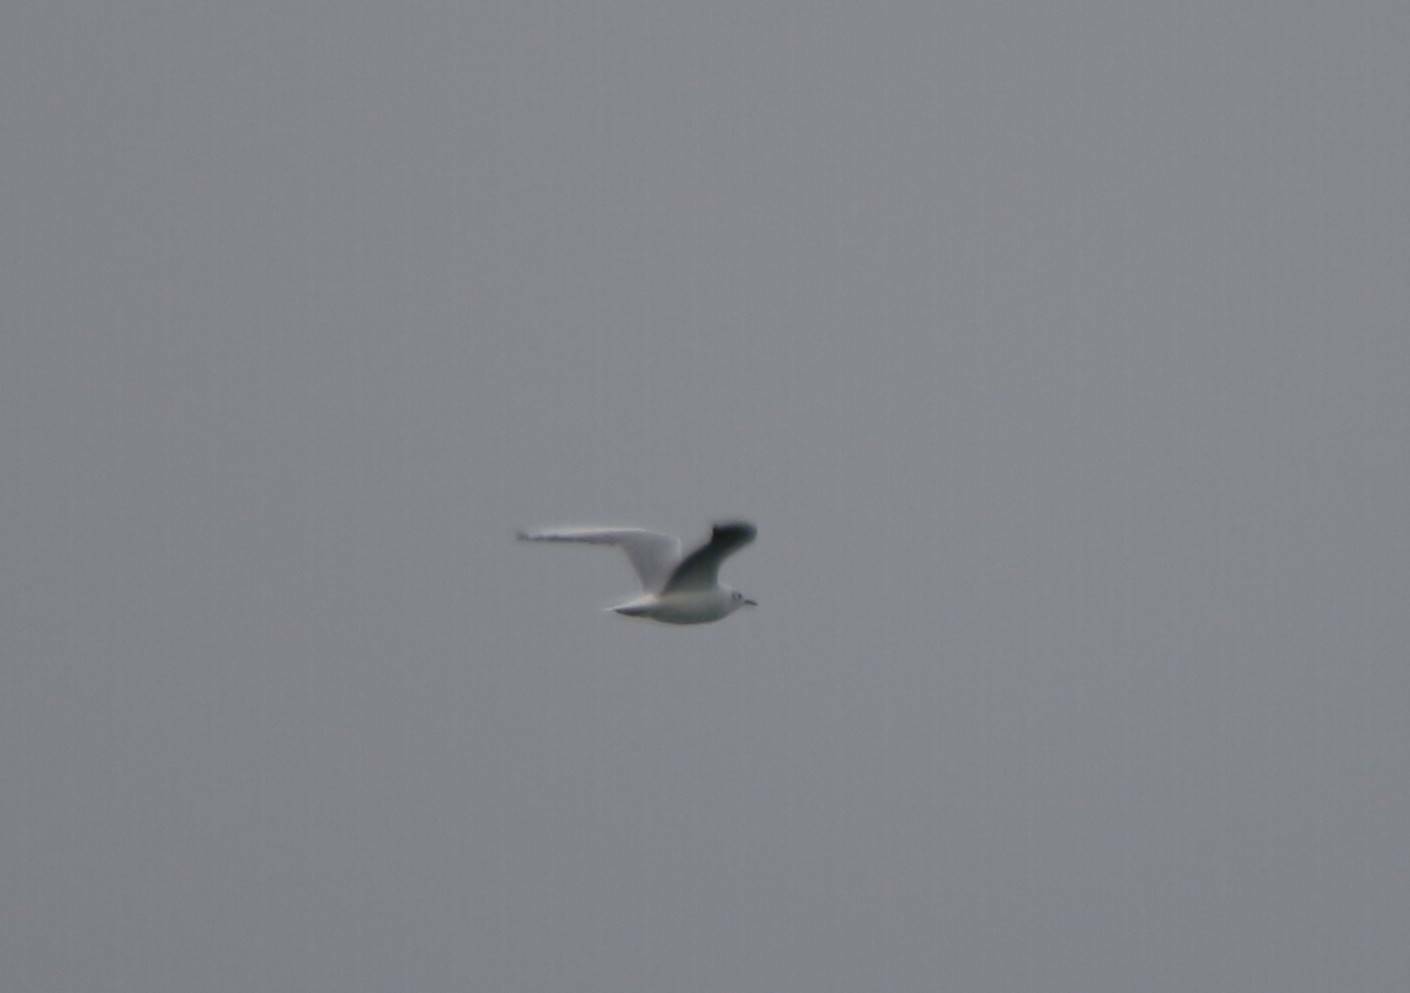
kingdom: Animalia
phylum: Chordata
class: Aves
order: Charadriiformes
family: Laridae
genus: Chroicocephalus
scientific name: Chroicocephalus ridibundus
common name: Black-headed gull
